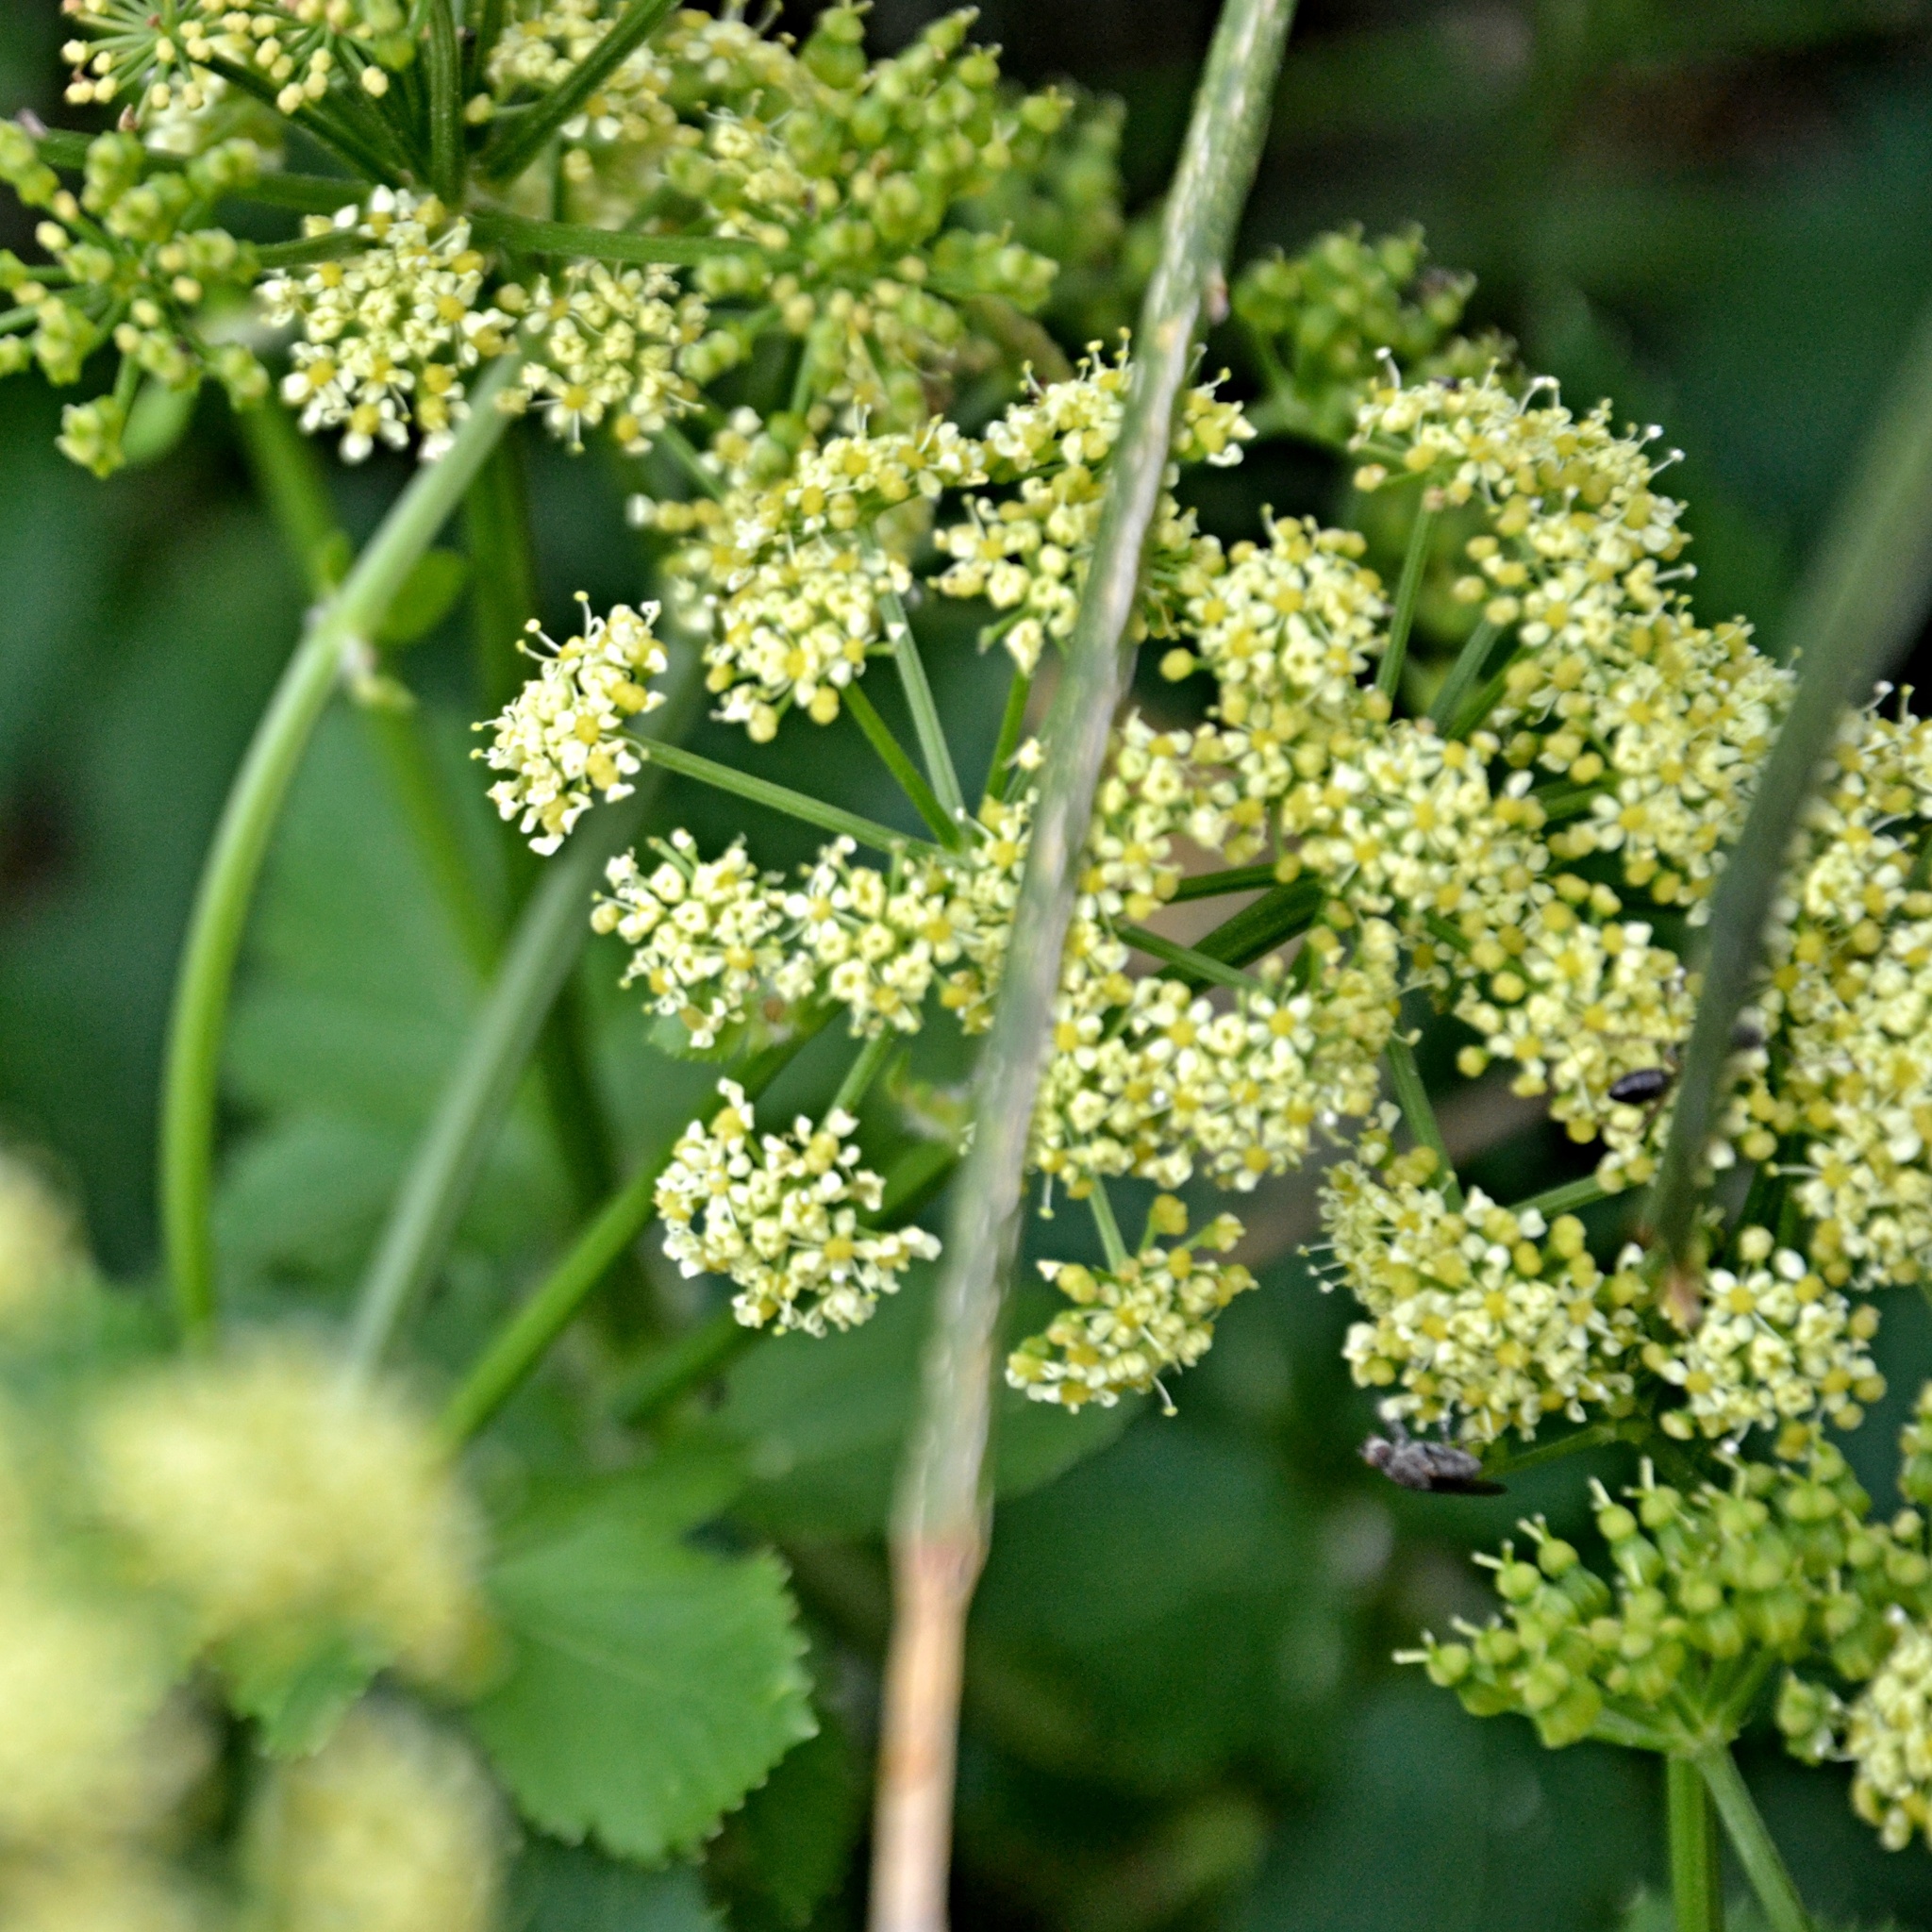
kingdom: Plantae
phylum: Tracheophyta
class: Magnoliopsida
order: Apiales
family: Apiaceae
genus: Smyrnium
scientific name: Smyrnium olusatrum
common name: Alexanders
